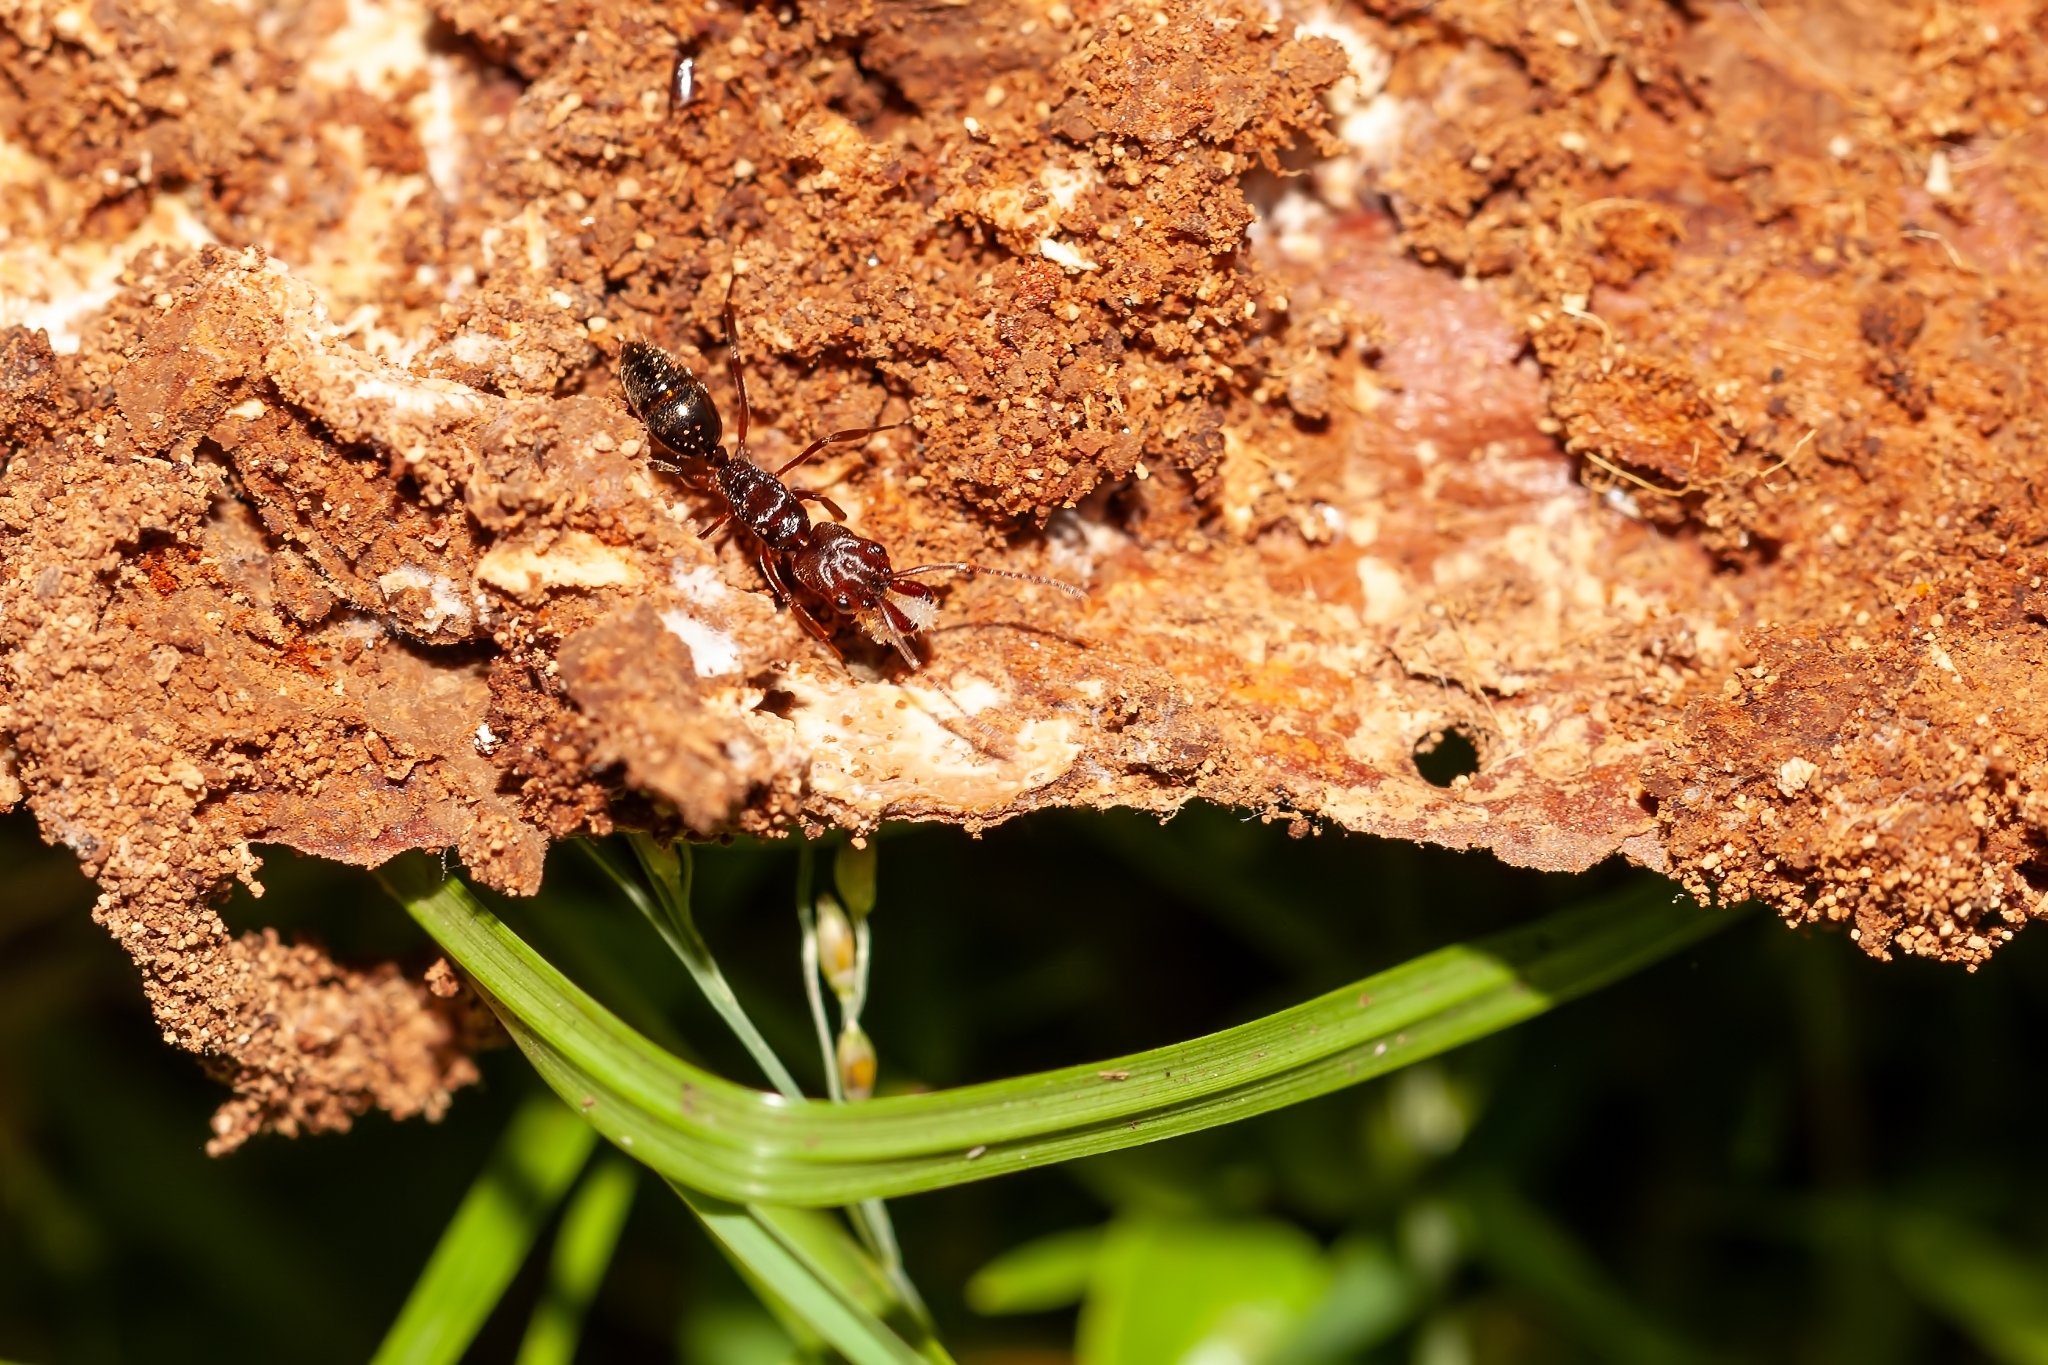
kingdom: Animalia
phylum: Arthropoda
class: Insecta
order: Hymenoptera
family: Formicidae
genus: Odontomachus
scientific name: Odontomachus ruginodis
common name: Trapjaw ant
